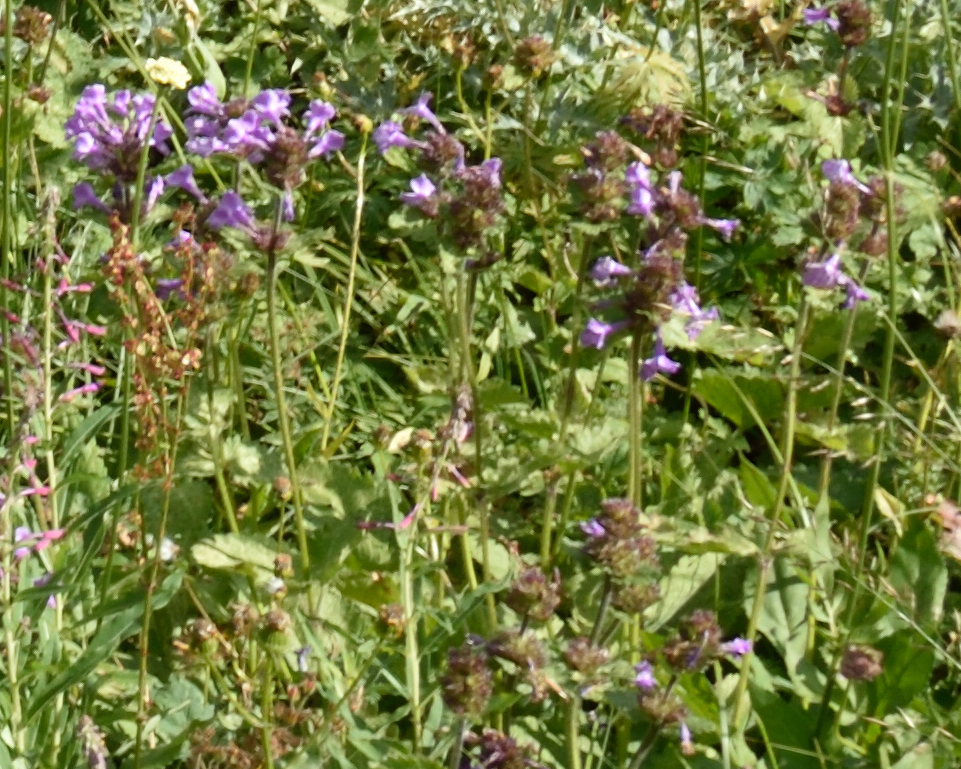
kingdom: Plantae
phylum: Tracheophyta
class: Magnoliopsida
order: Lamiales
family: Lamiaceae
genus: Betonica
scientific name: Betonica macrantha
